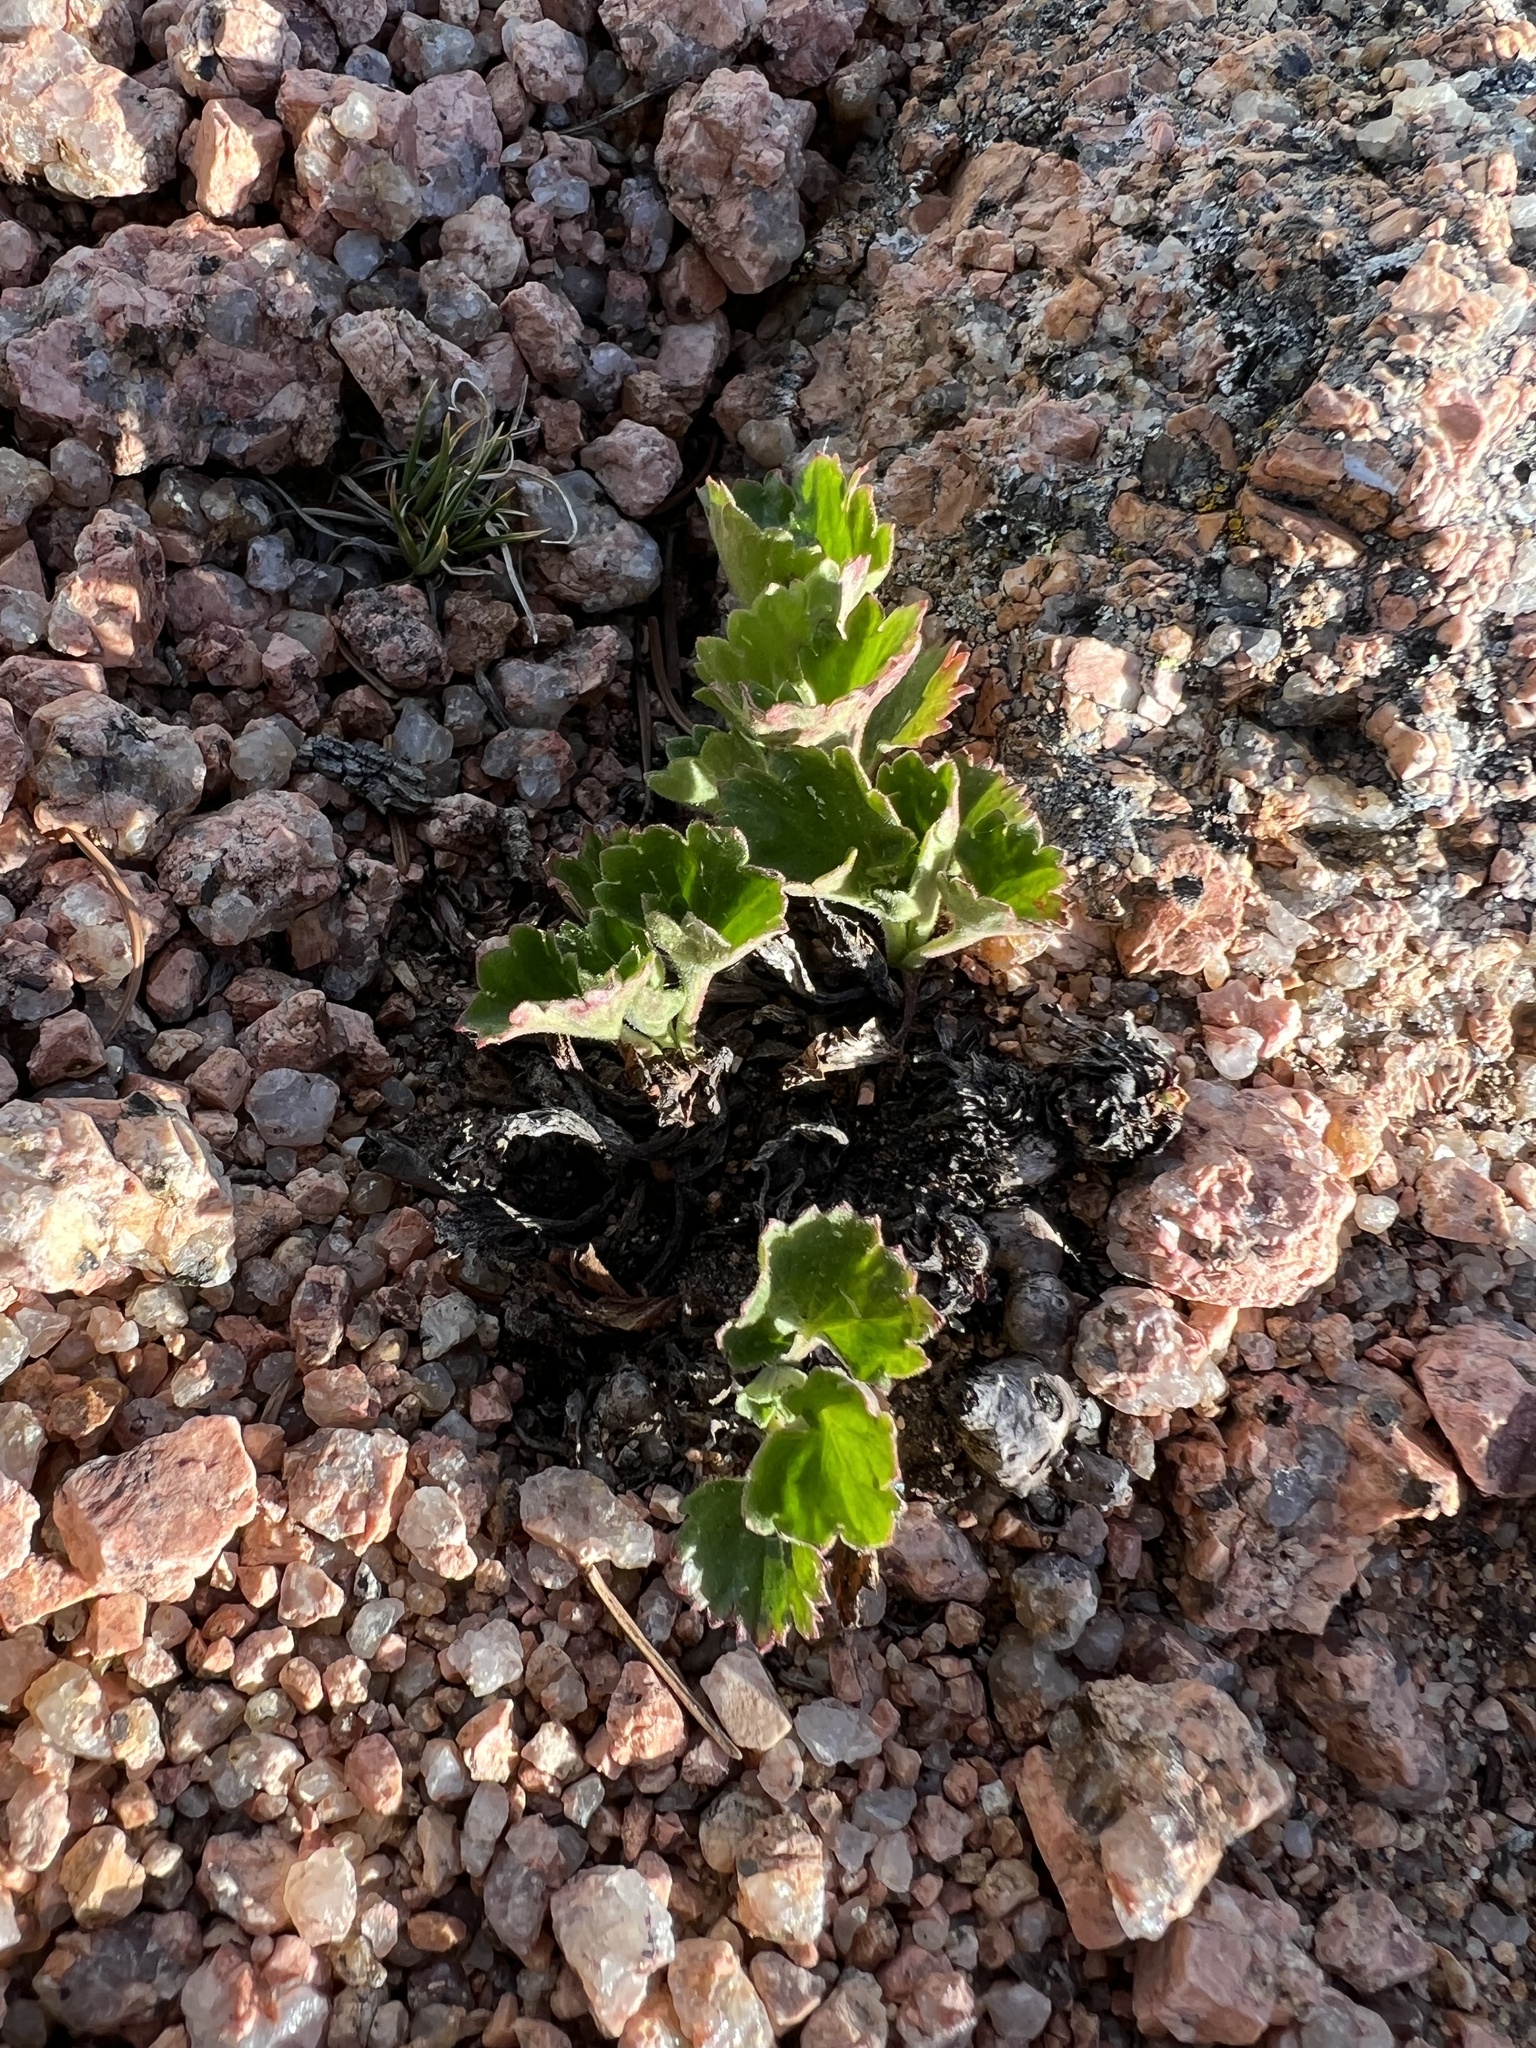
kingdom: Plantae
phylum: Tracheophyta
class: Magnoliopsida
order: Saxifragales
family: Saxifragaceae
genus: Telesonix
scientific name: Telesonix jamesii
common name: James's-saxifrage
